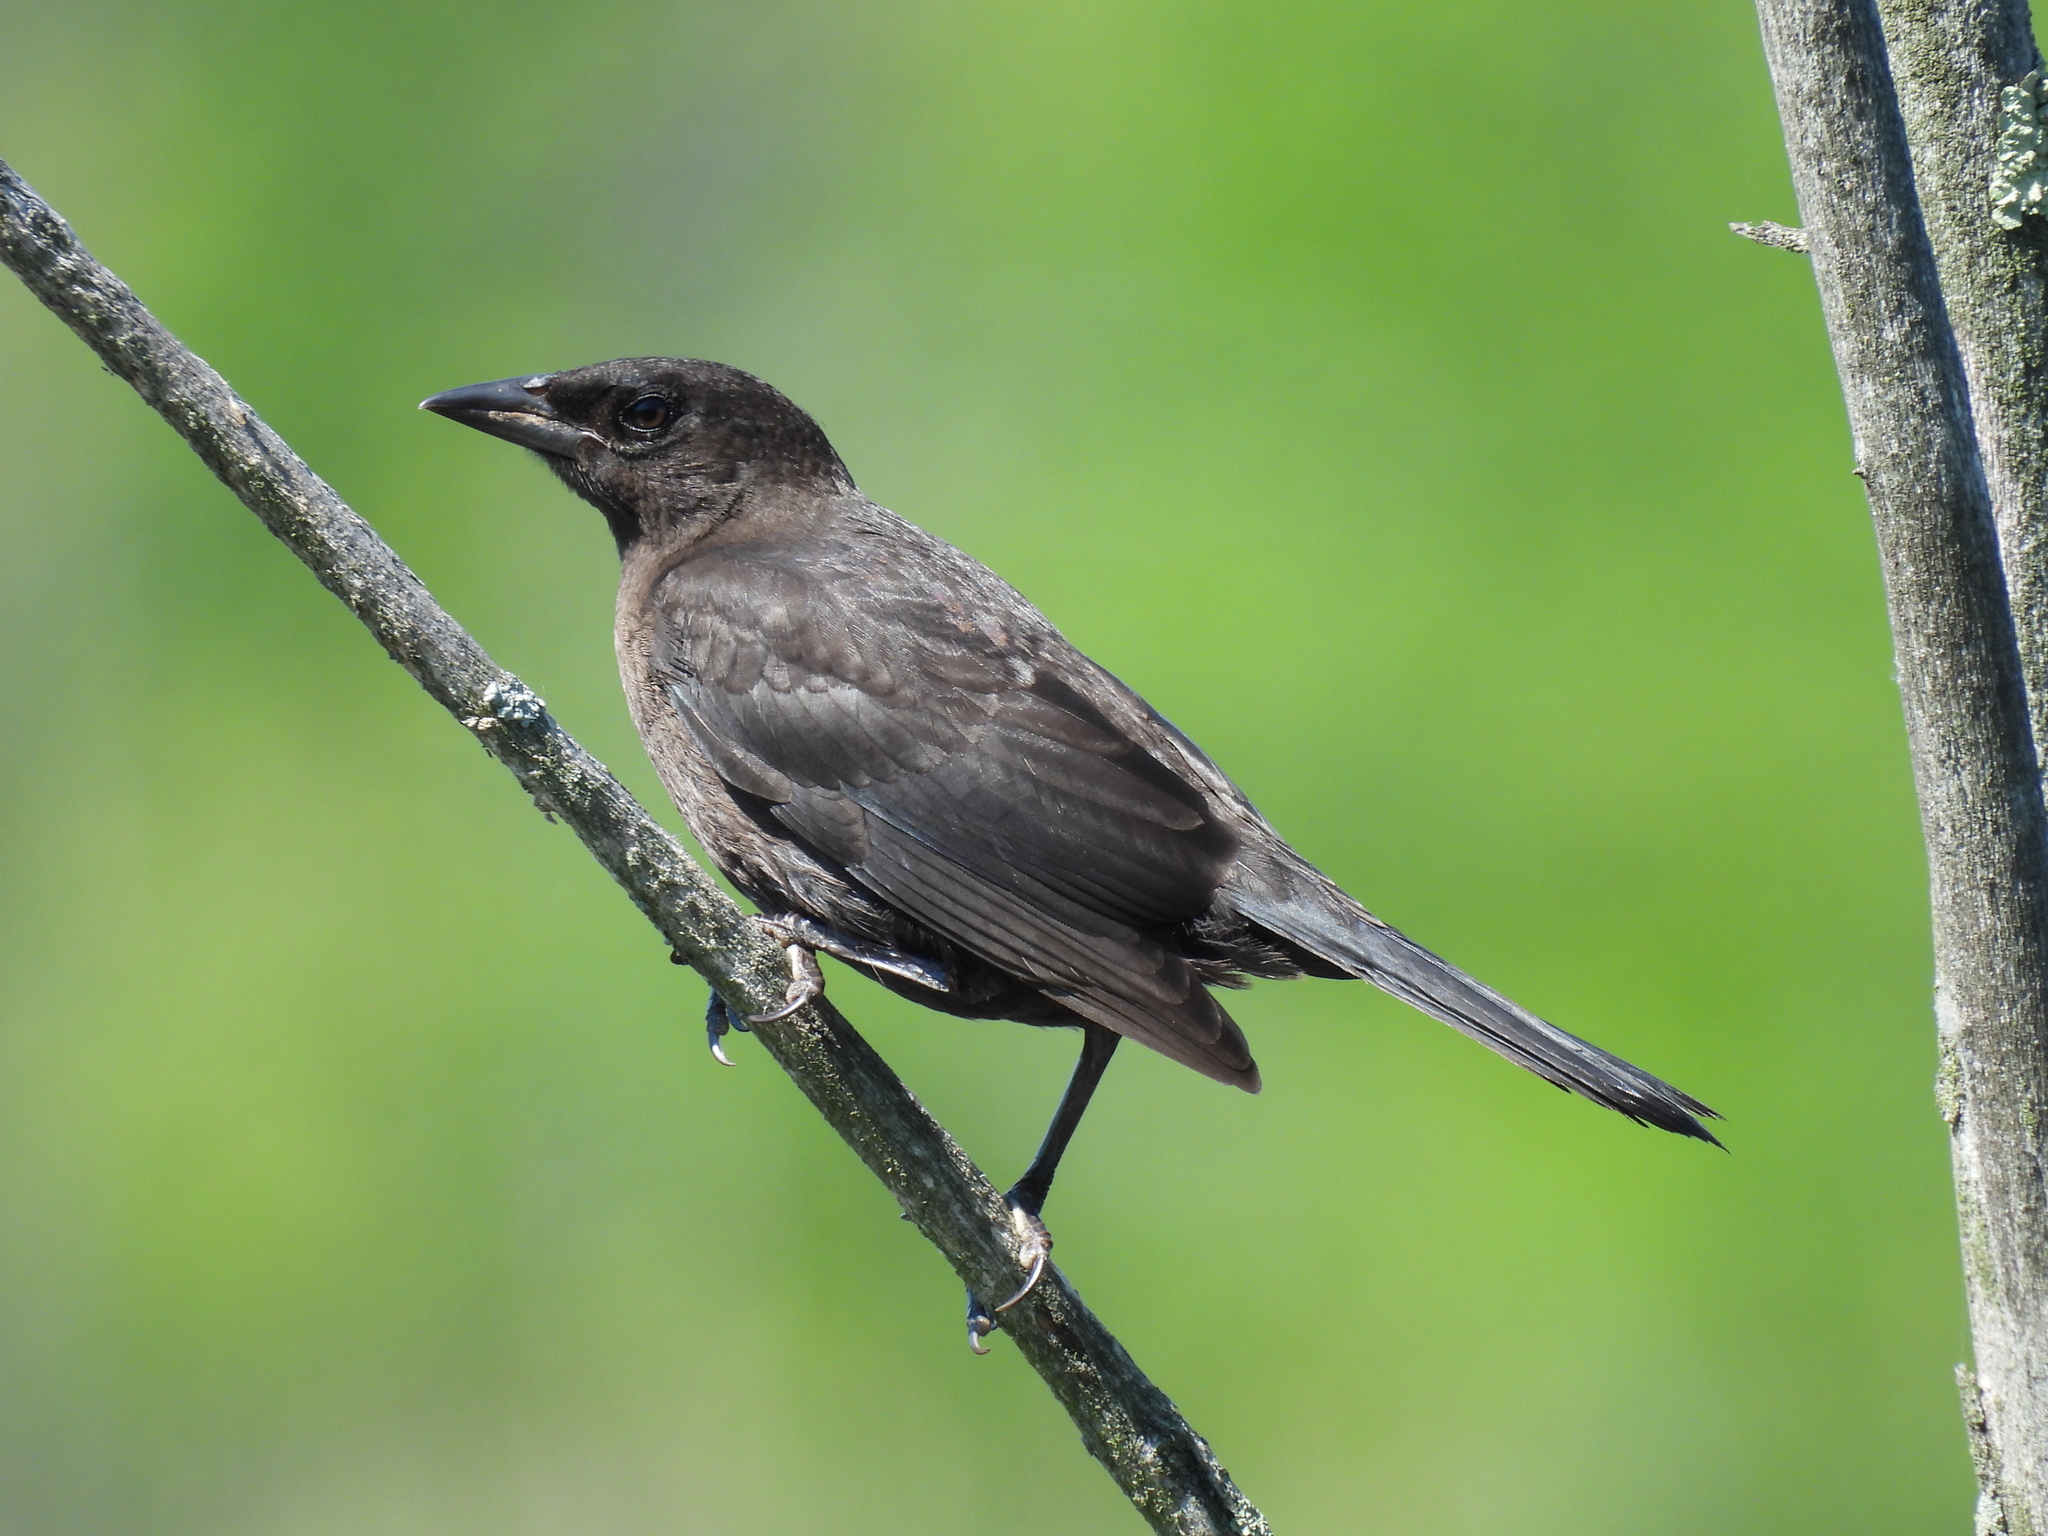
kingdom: Animalia
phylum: Chordata
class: Aves
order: Passeriformes
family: Icteridae
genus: Quiscalus
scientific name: Quiscalus quiscula
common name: Common grackle
